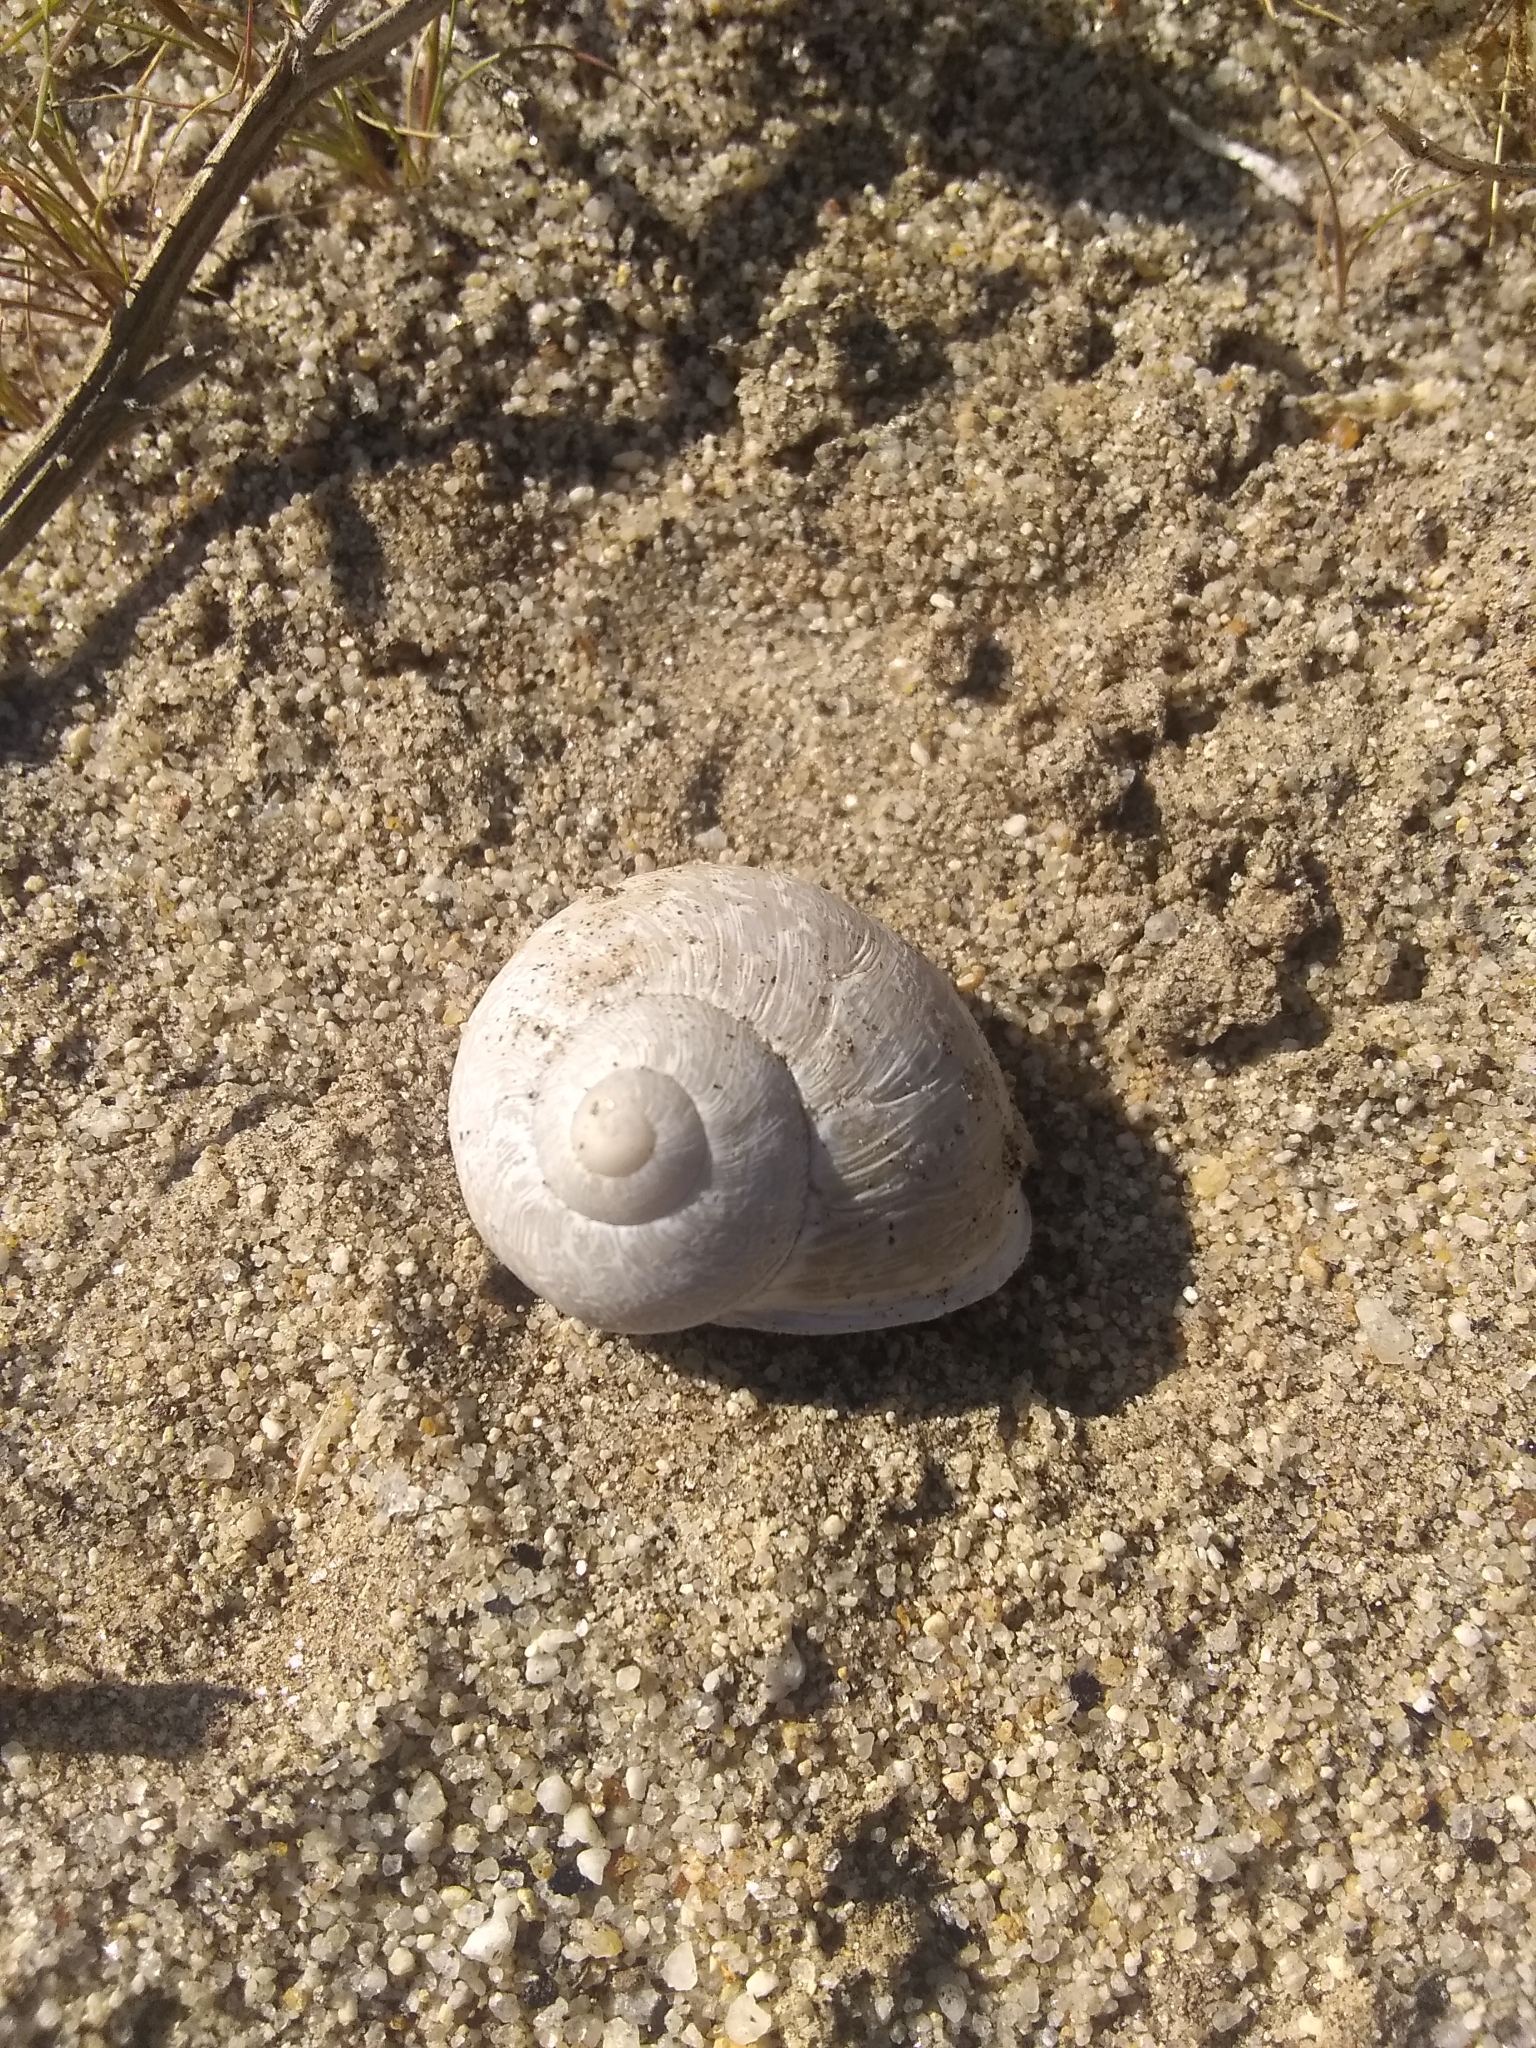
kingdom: Animalia
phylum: Mollusca
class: Gastropoda
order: Stylommatophora
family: Helicidae
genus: Cornu
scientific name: Cornu aspersum
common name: Brown garden snail
